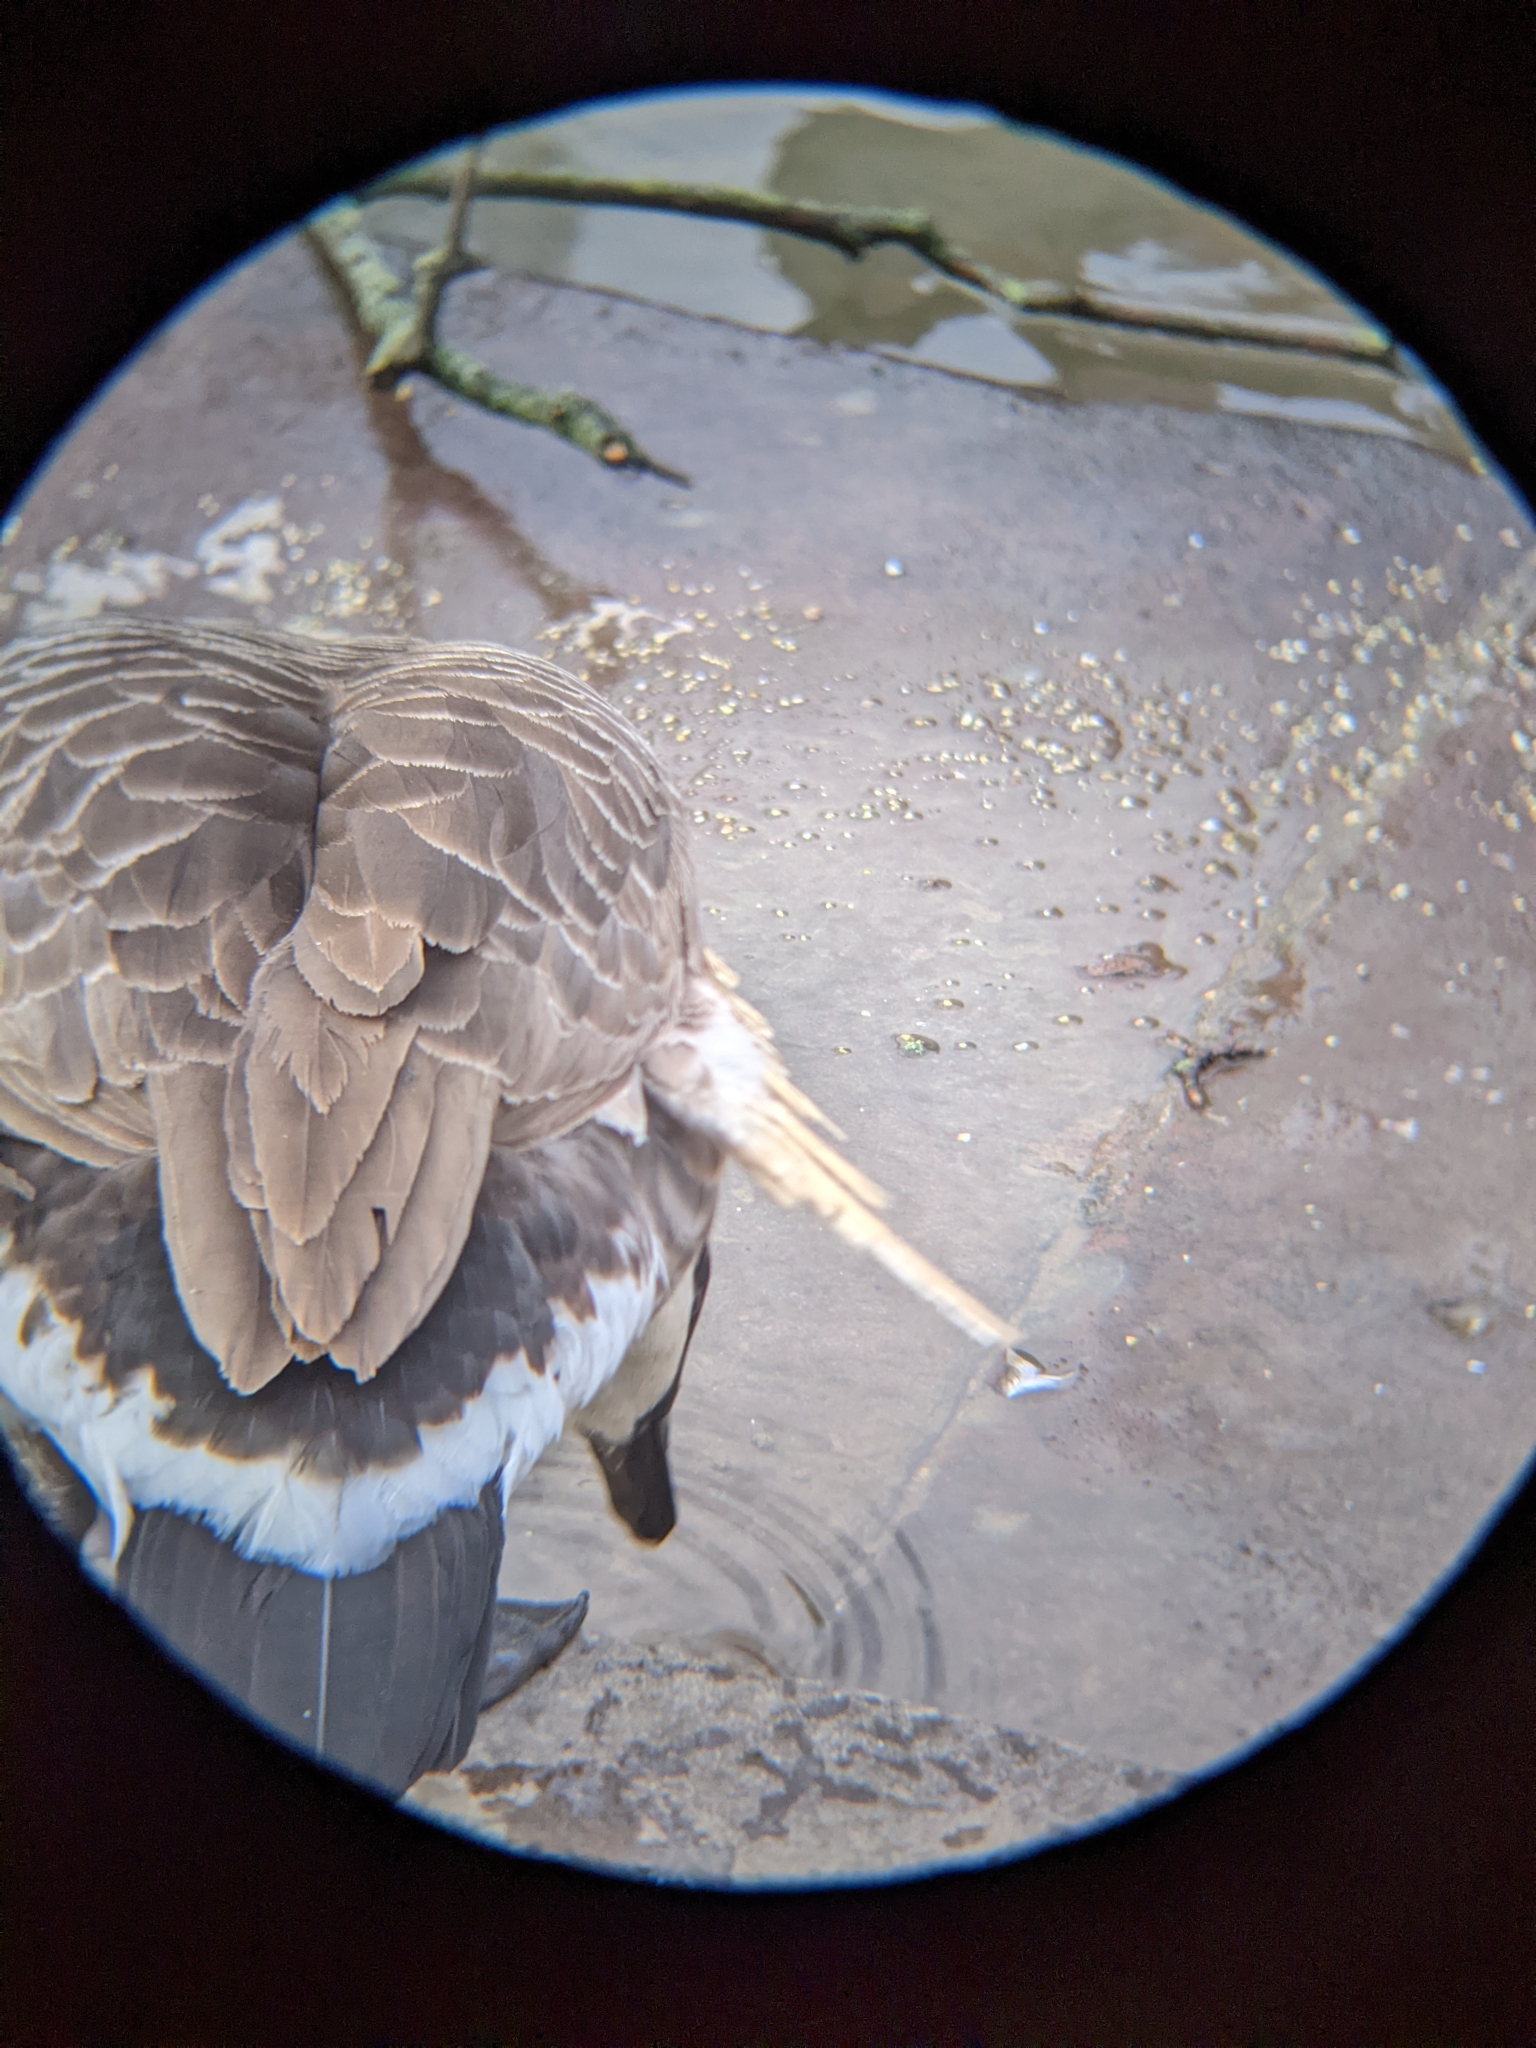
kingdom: Animalia
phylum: Chordata
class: Aves
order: Anseriformes
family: Anatidae
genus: Branta
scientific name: Branta canadensis
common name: Canada goose
